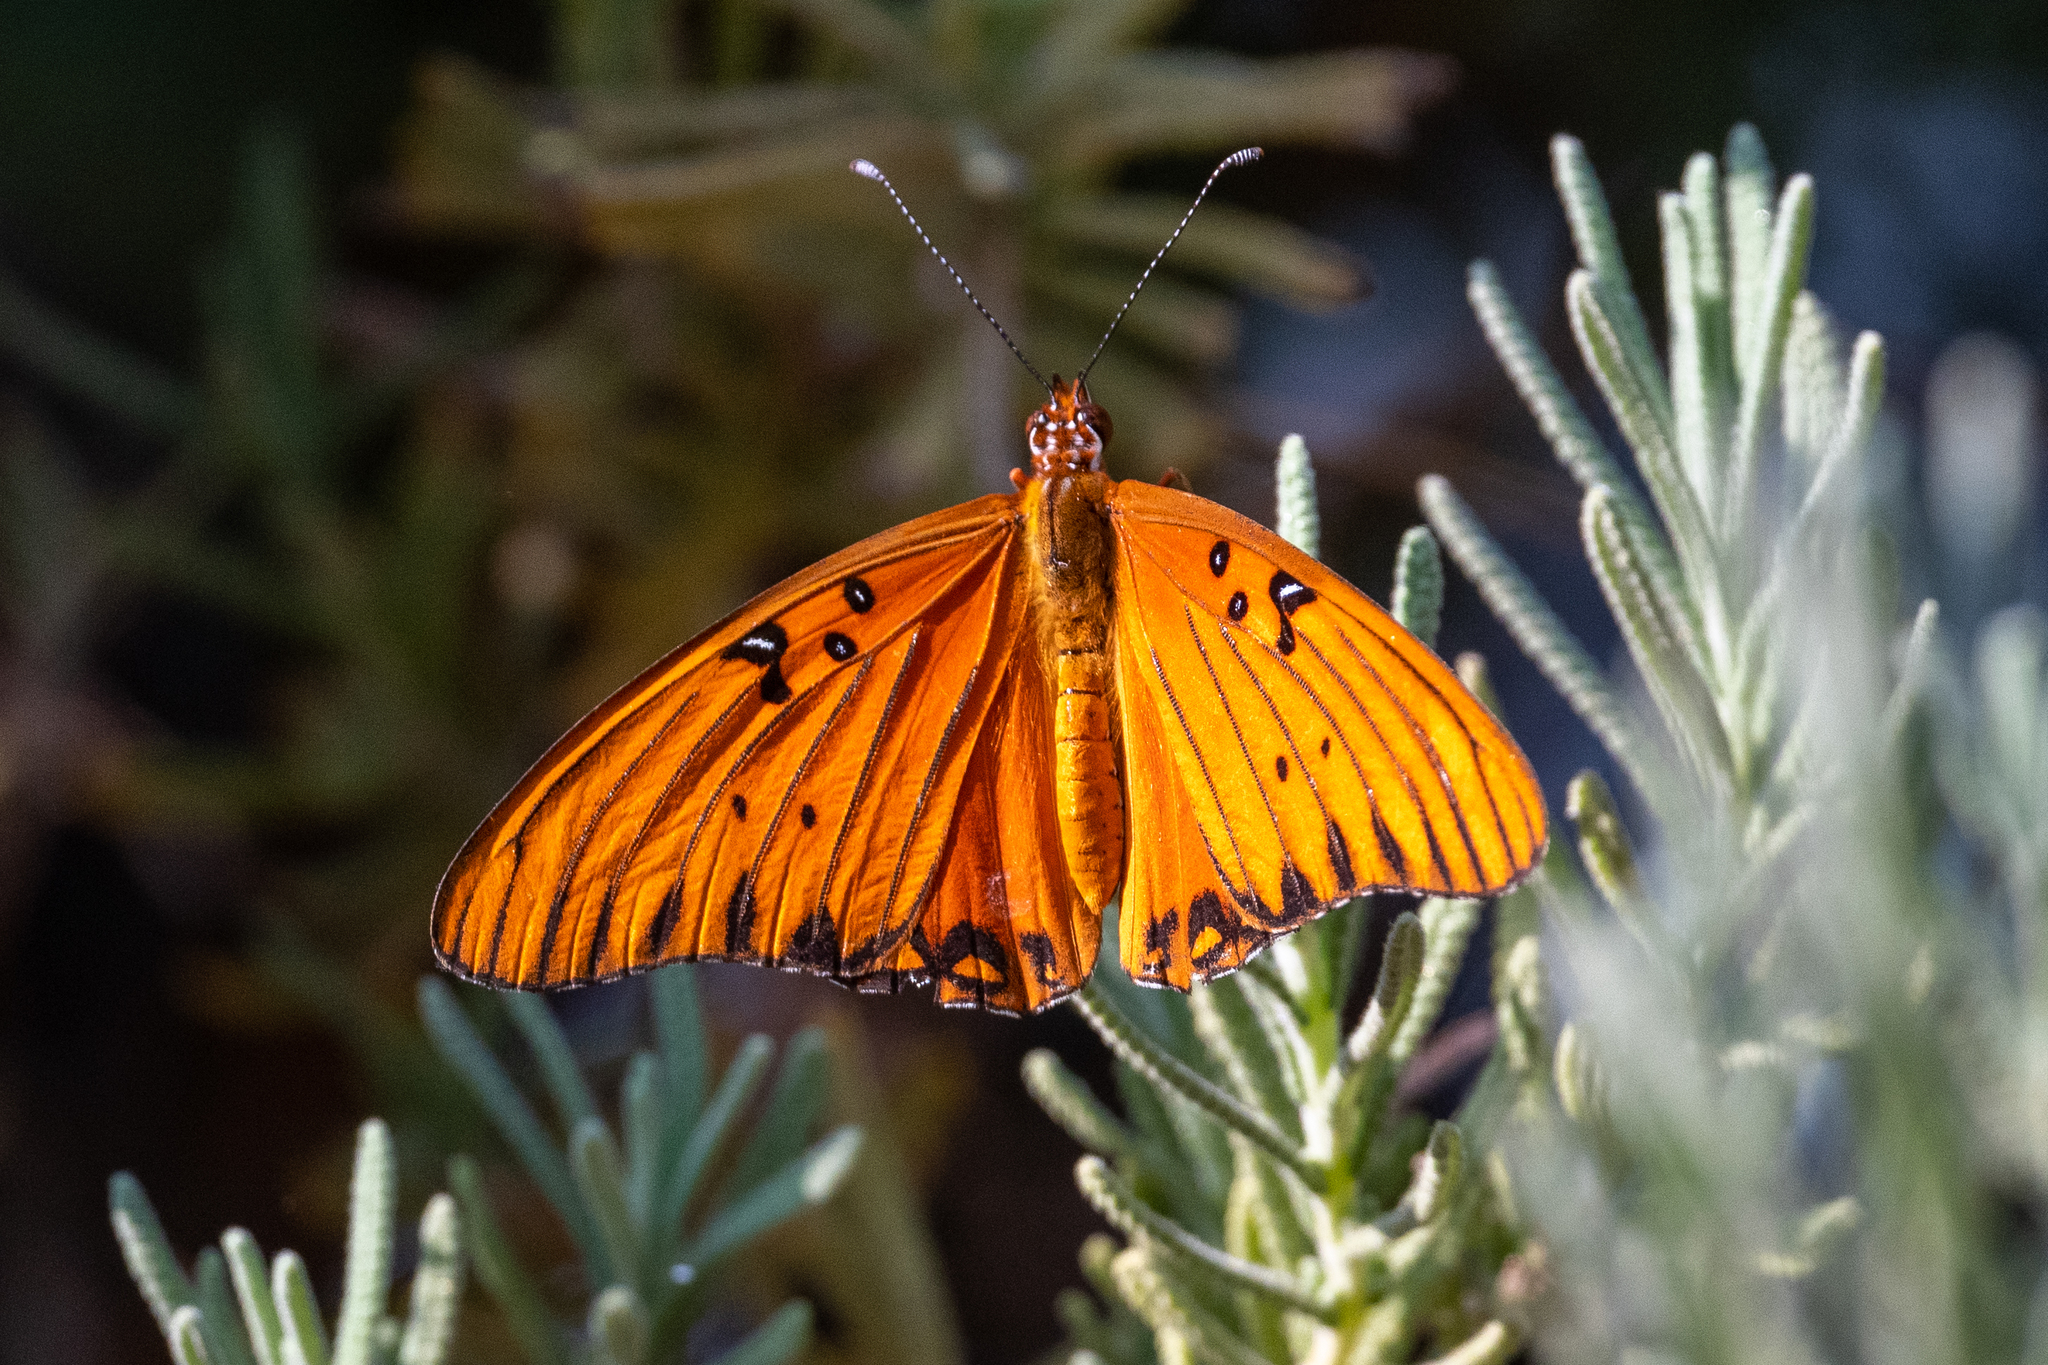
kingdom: Animalia
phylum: Arthropoda
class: Insecta
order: Lepidoptera
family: Nymphalidae
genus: Dione
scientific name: Dione vanillae
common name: Gulf fritillary
